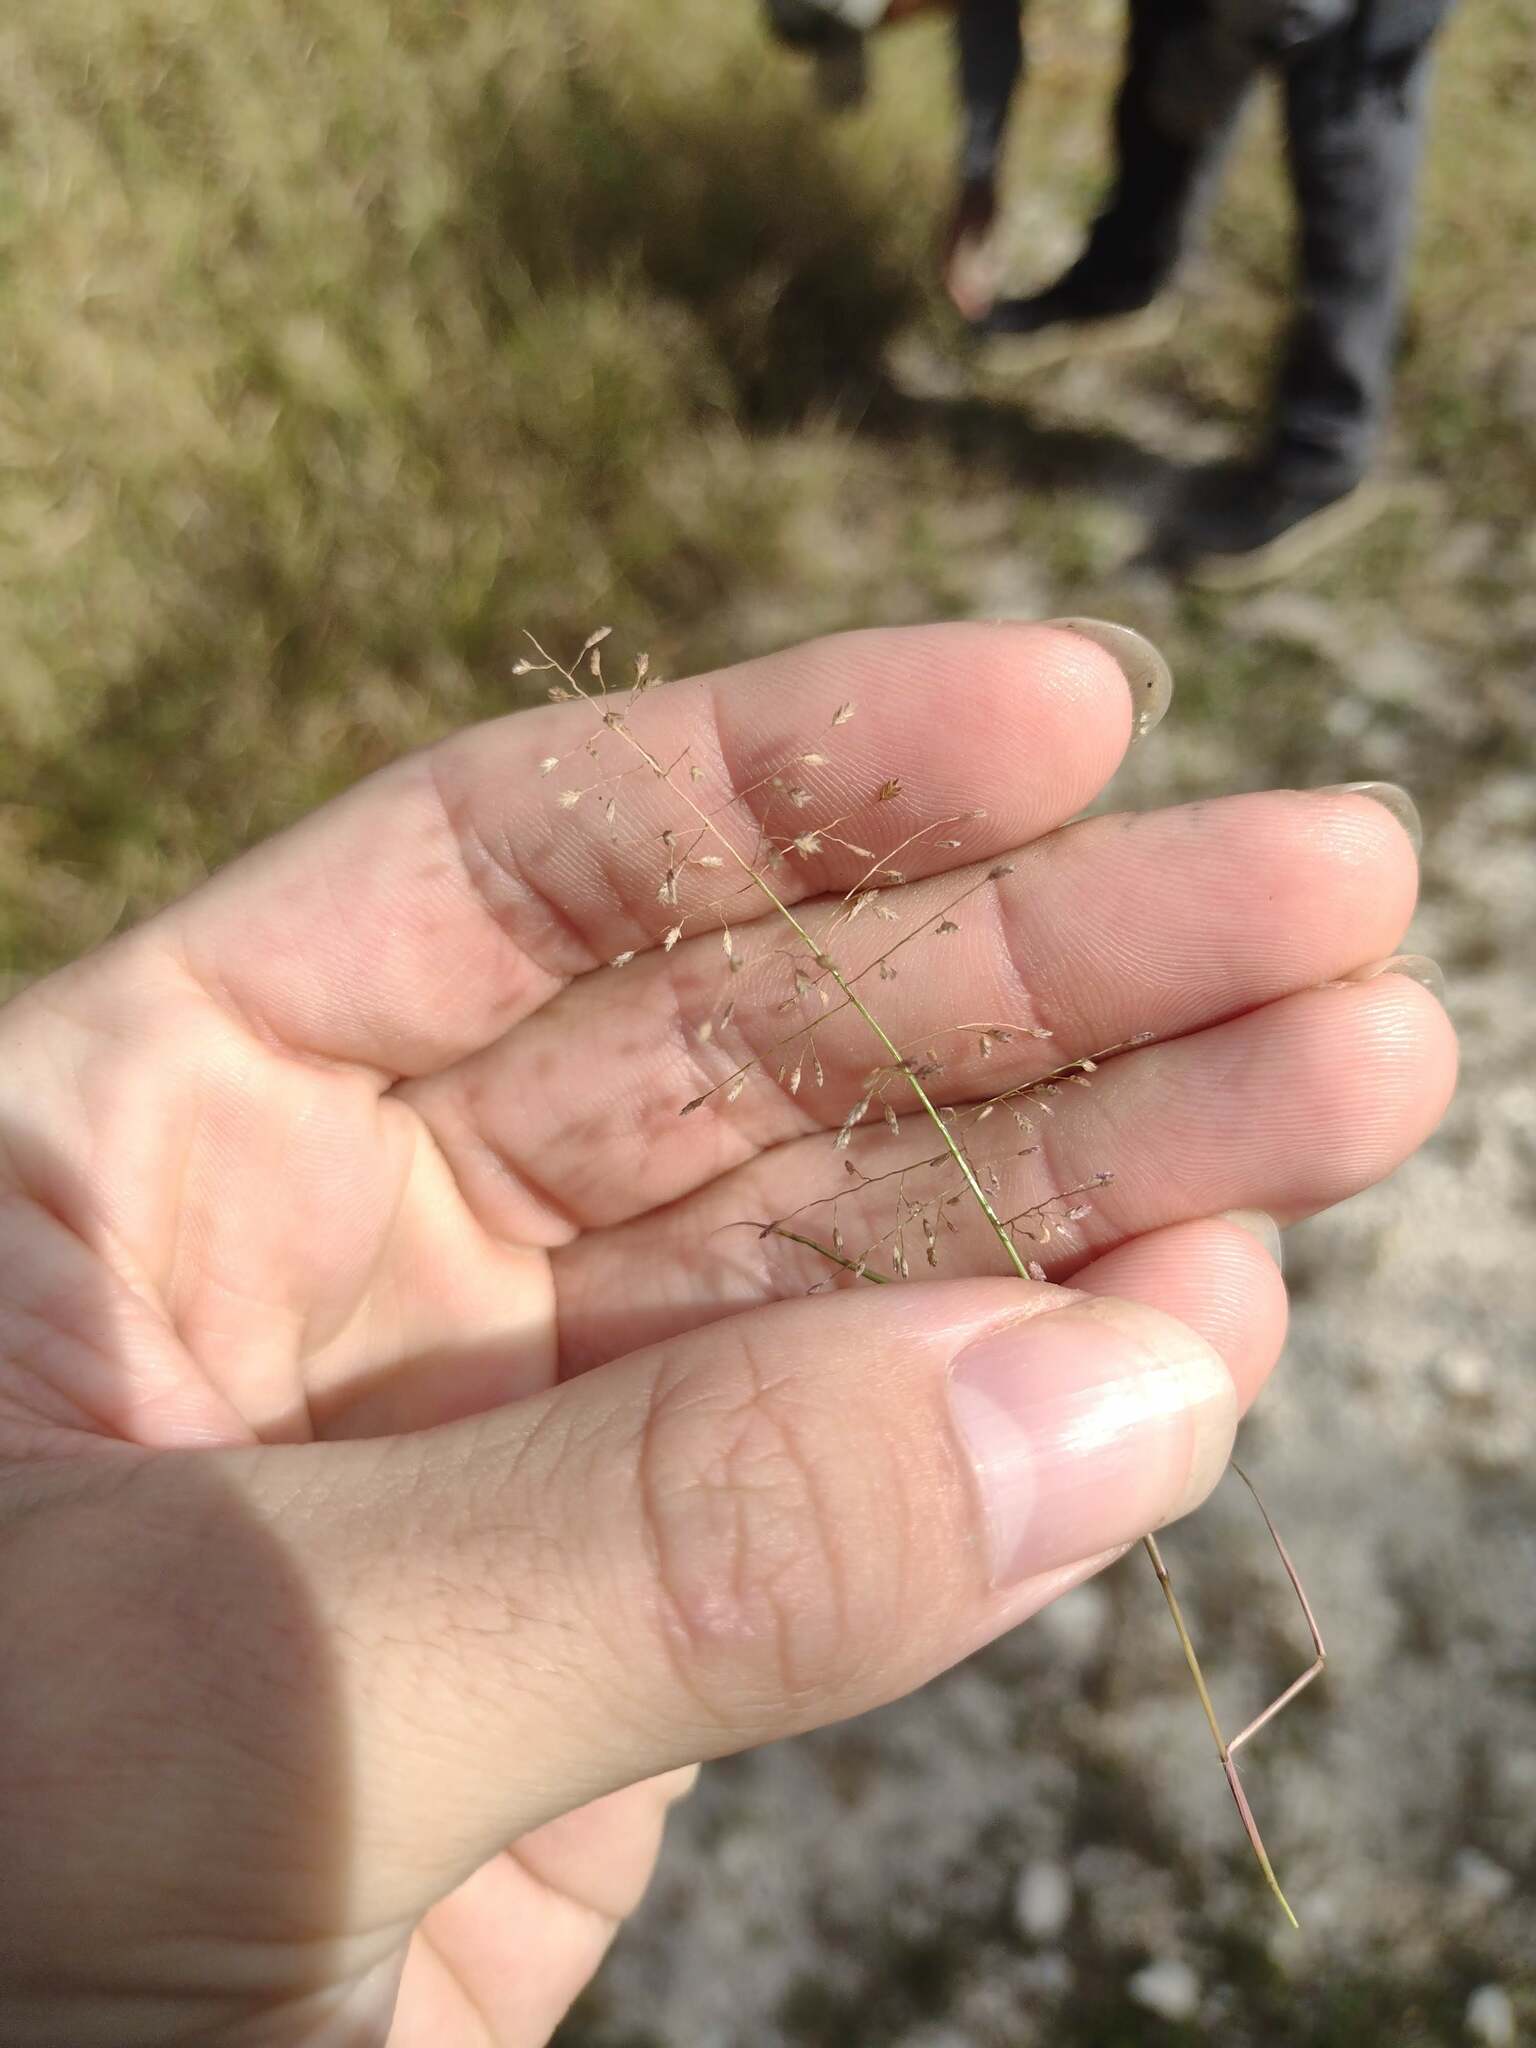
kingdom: Plantae
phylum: Tracheophyta
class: Liliopsida
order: Poales
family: Poaceae
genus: Eragrostis
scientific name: Eragrostis tenella
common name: Japanese lovegrass
